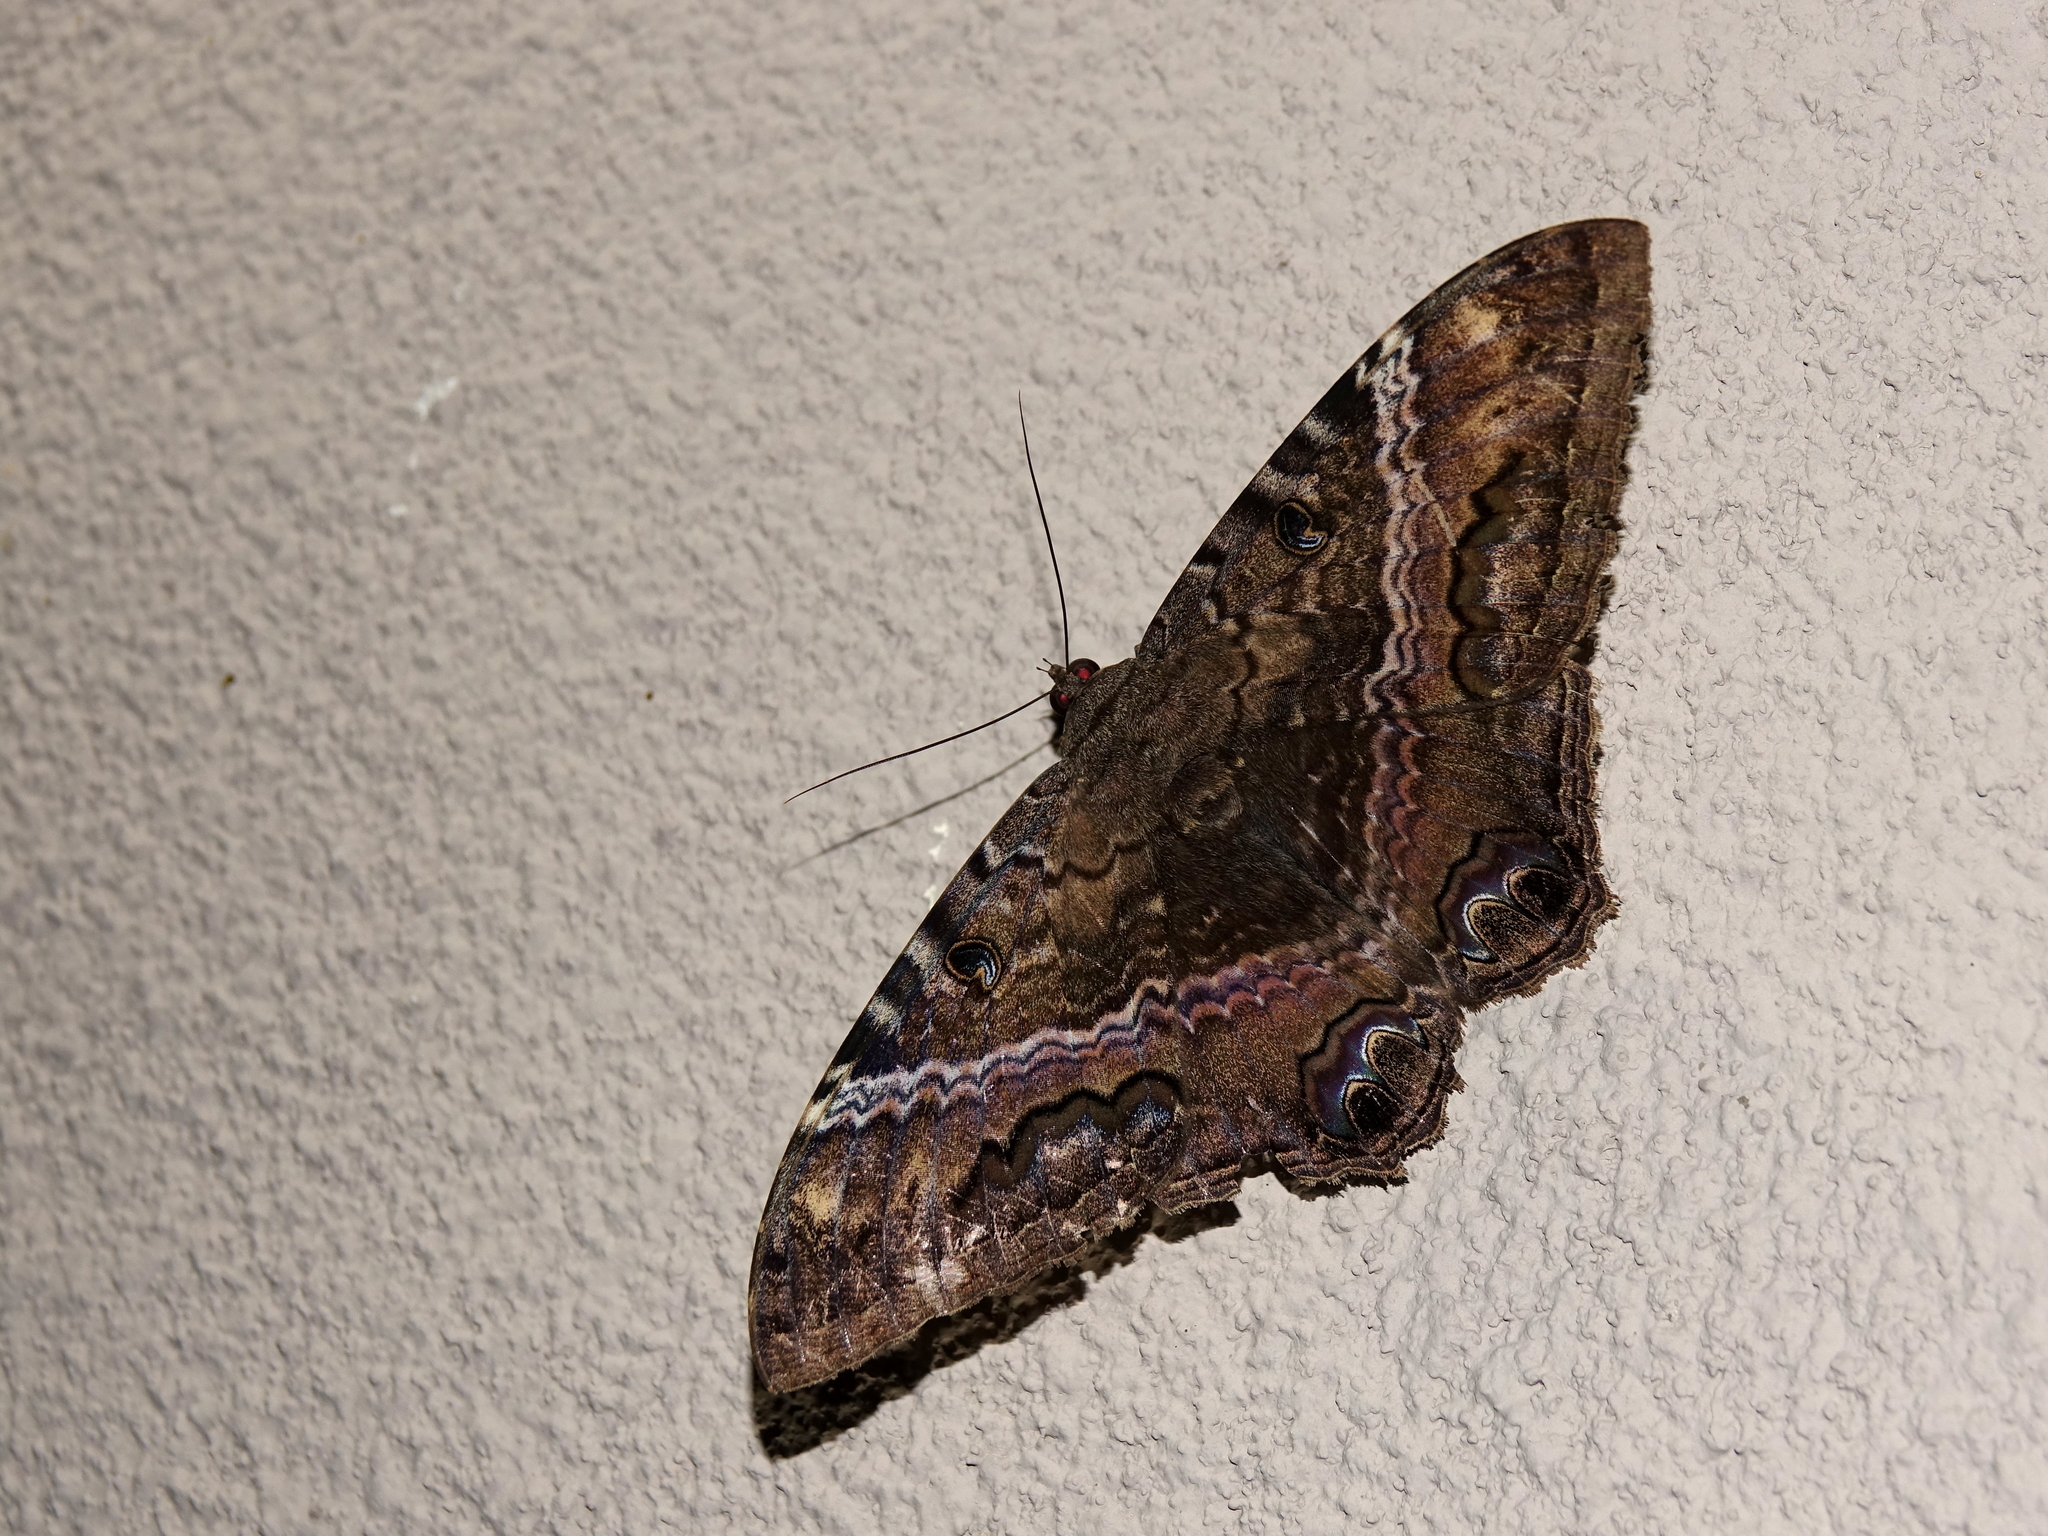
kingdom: Animalia
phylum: Arthropoda
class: Insecta
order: Lepidoptera
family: Erebidae
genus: Ascalapha
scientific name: Ascalapha odorata
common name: Black witch
